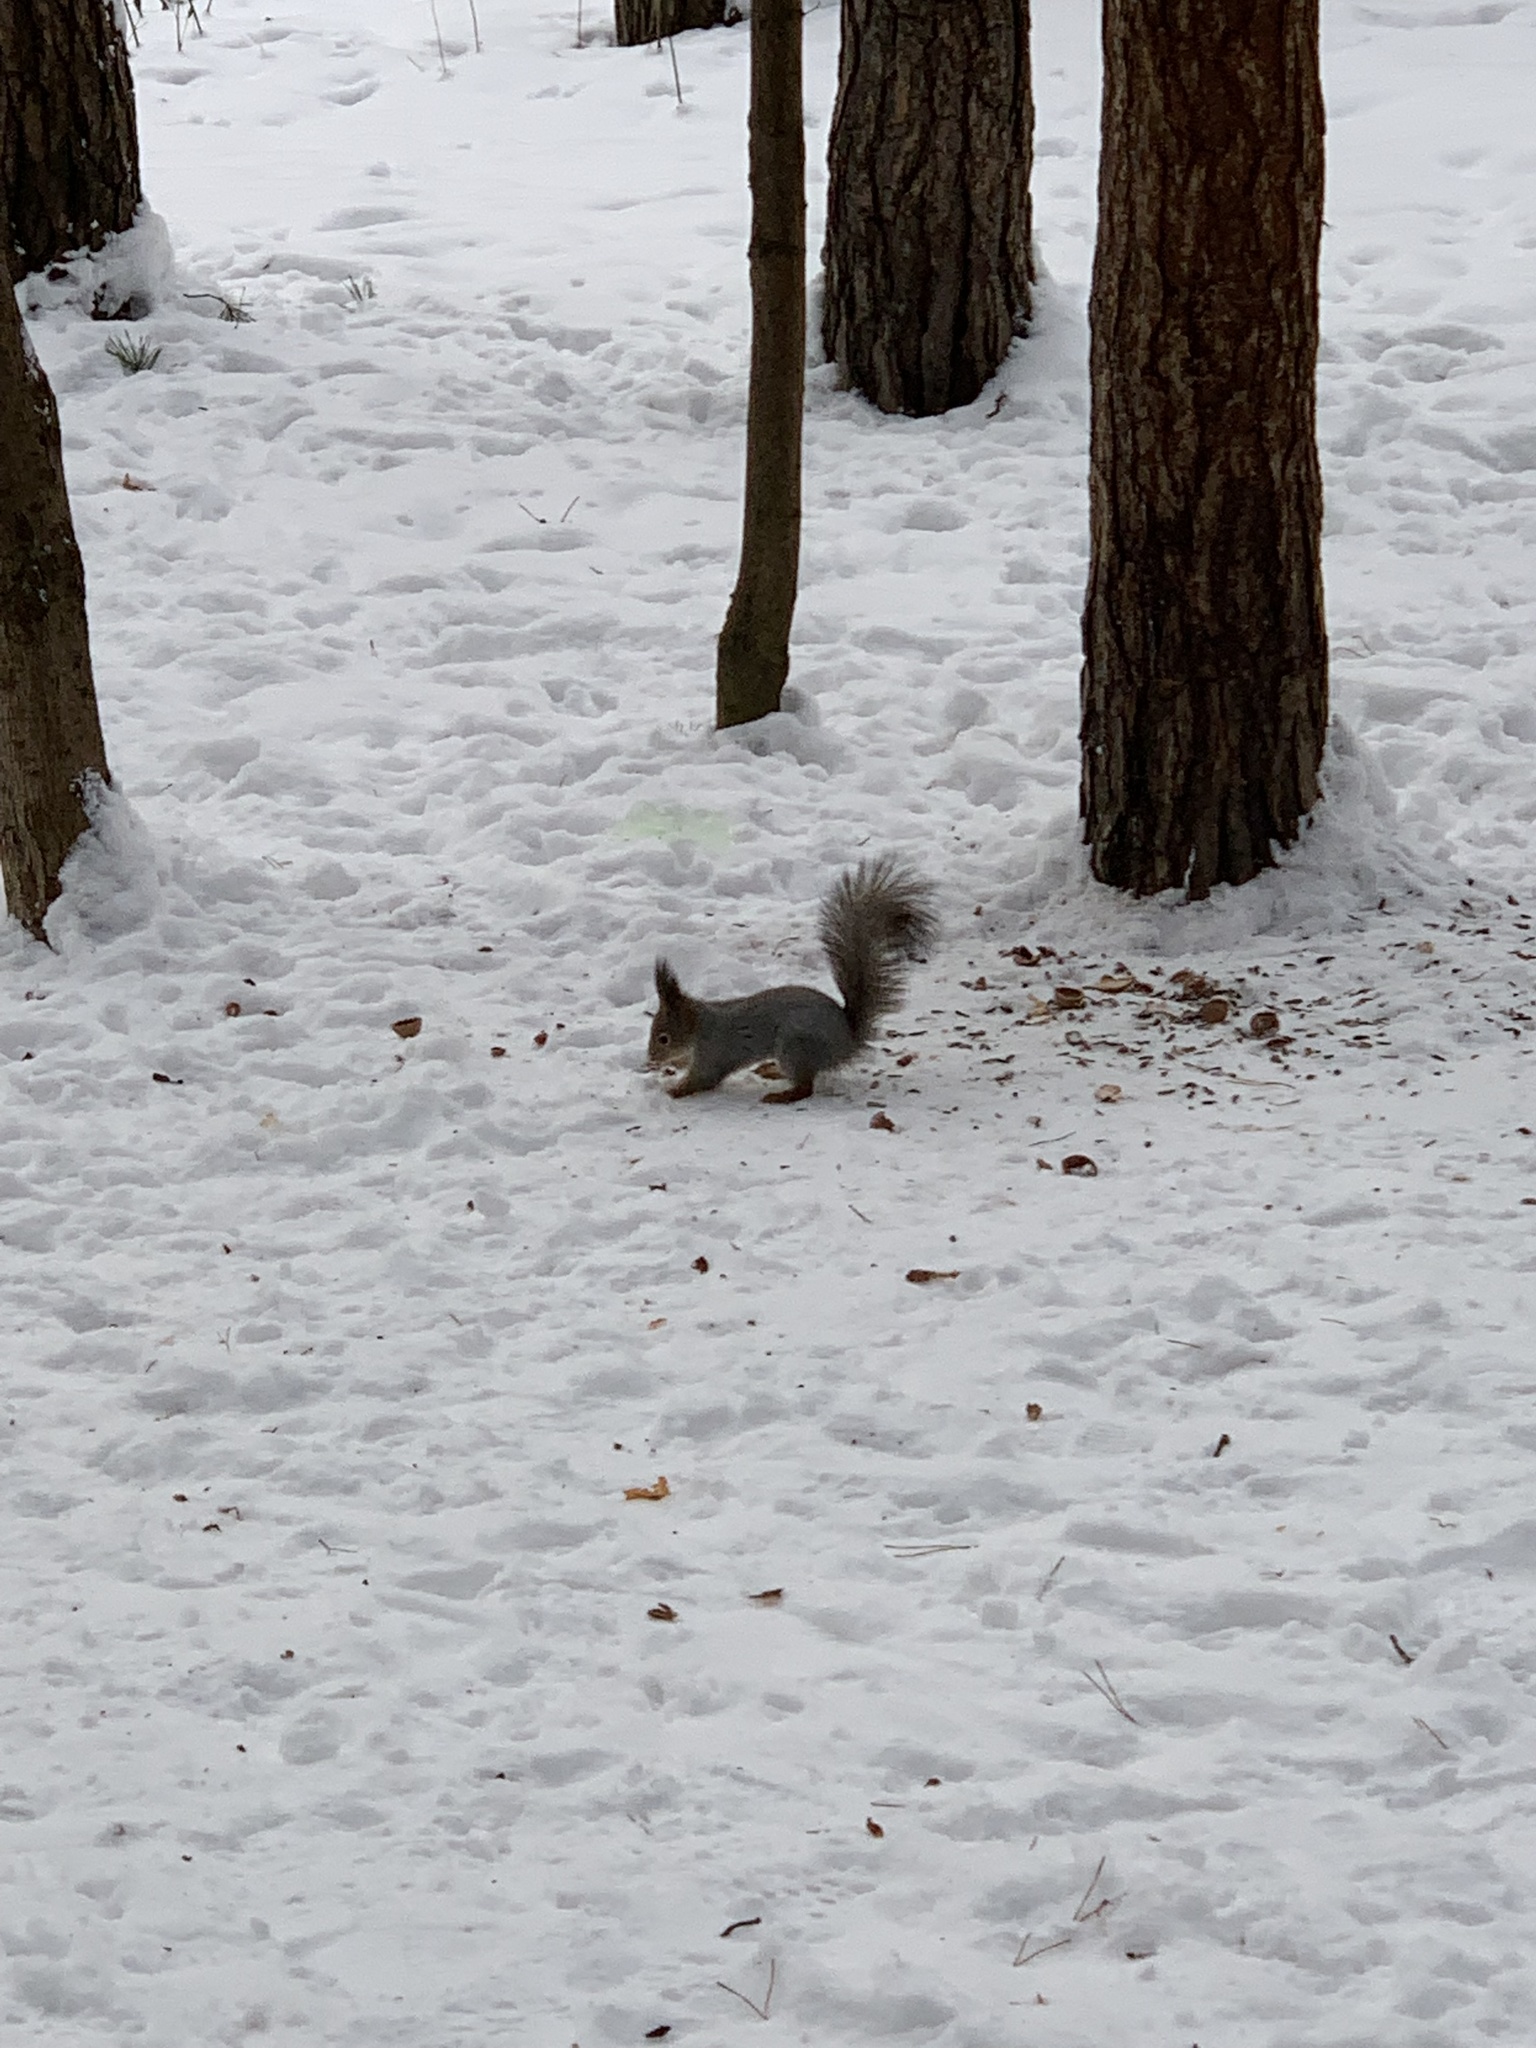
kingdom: Animalia
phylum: Chordata
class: Mammalia
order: Rodentia
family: Sciuridae
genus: Sciurus
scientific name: Sciurus vulgaris
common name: Eurasian red squirrel
